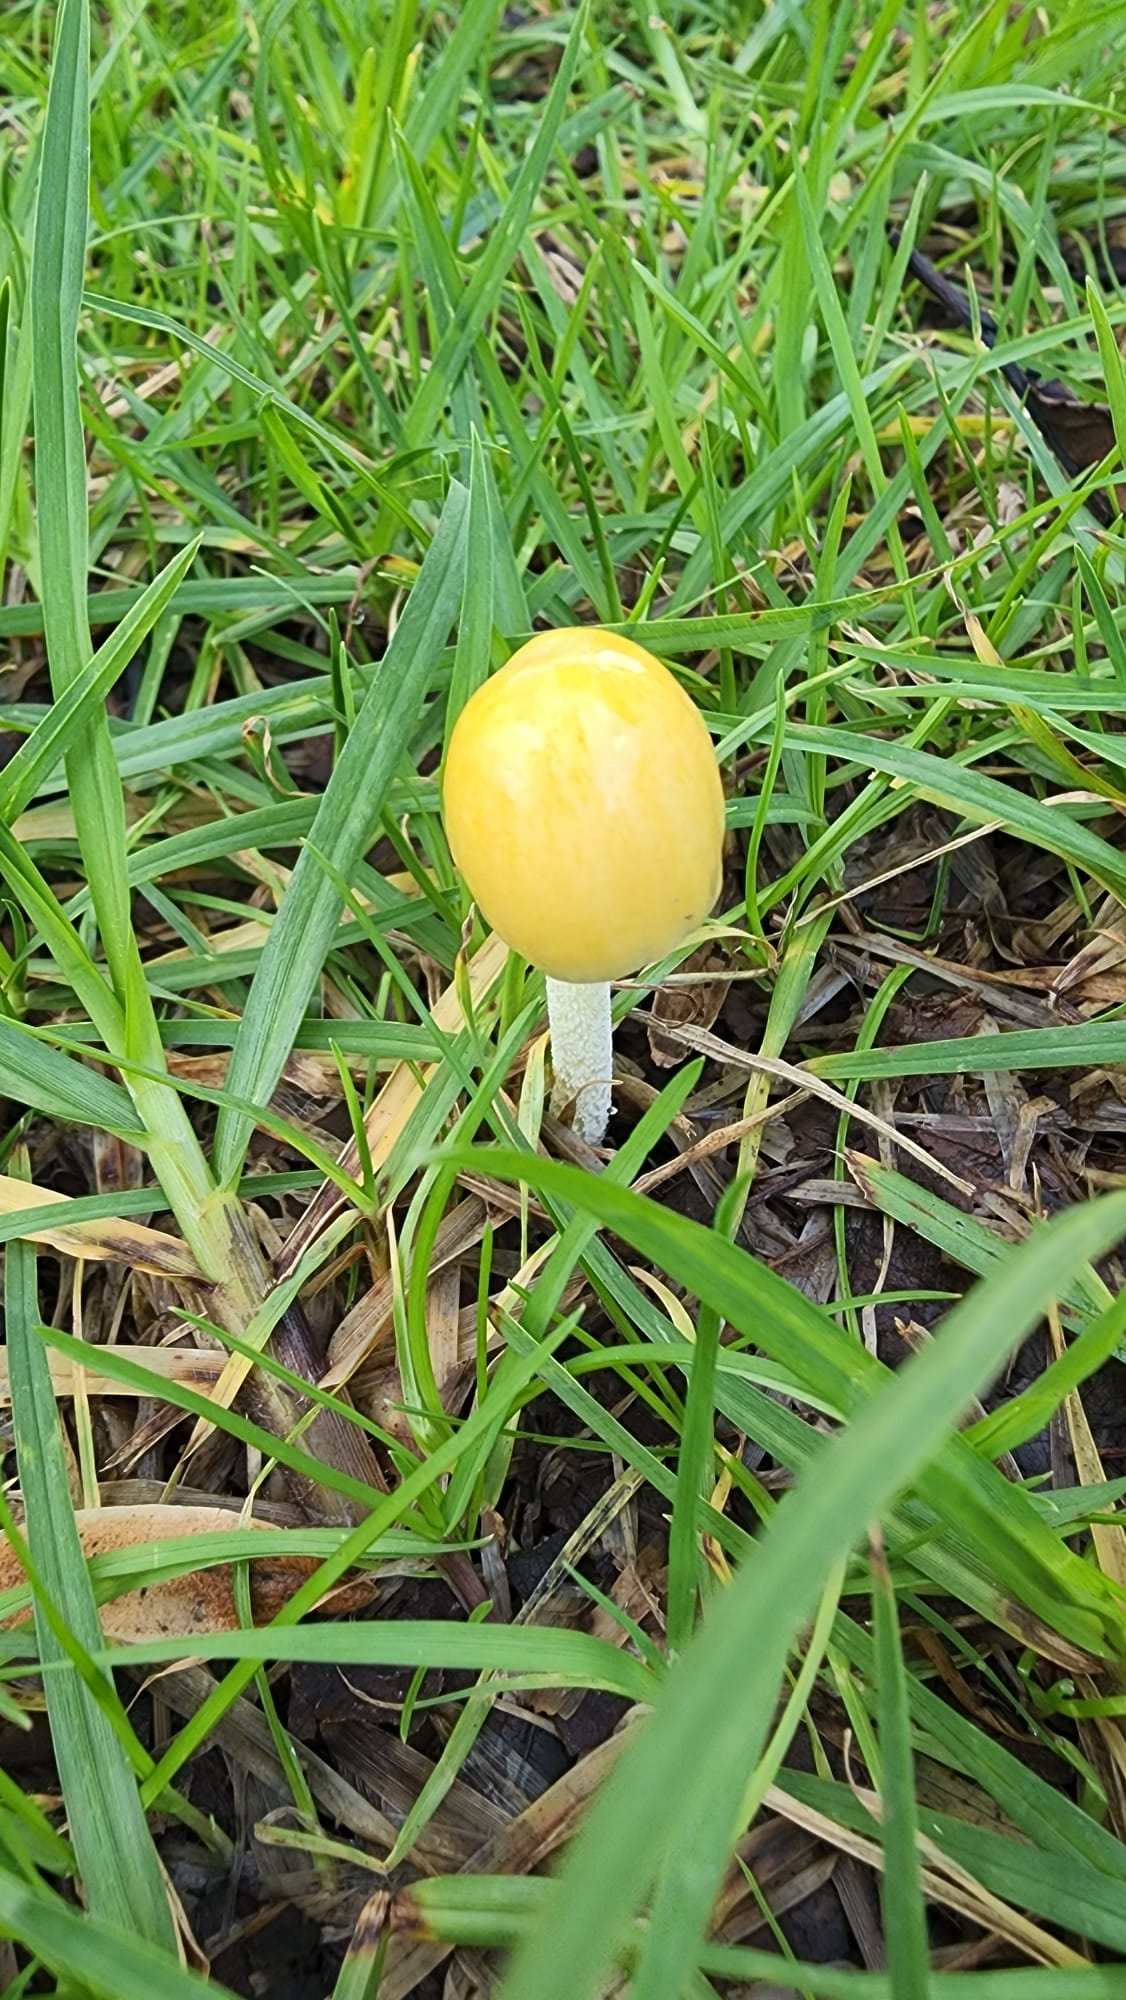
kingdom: Fungi
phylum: Basidiomycota
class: Agaricomycetes
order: Agaricales
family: Bolbitiaceae
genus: Bolbitius
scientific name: Bolbitius titubans
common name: Yellow fieldcap
